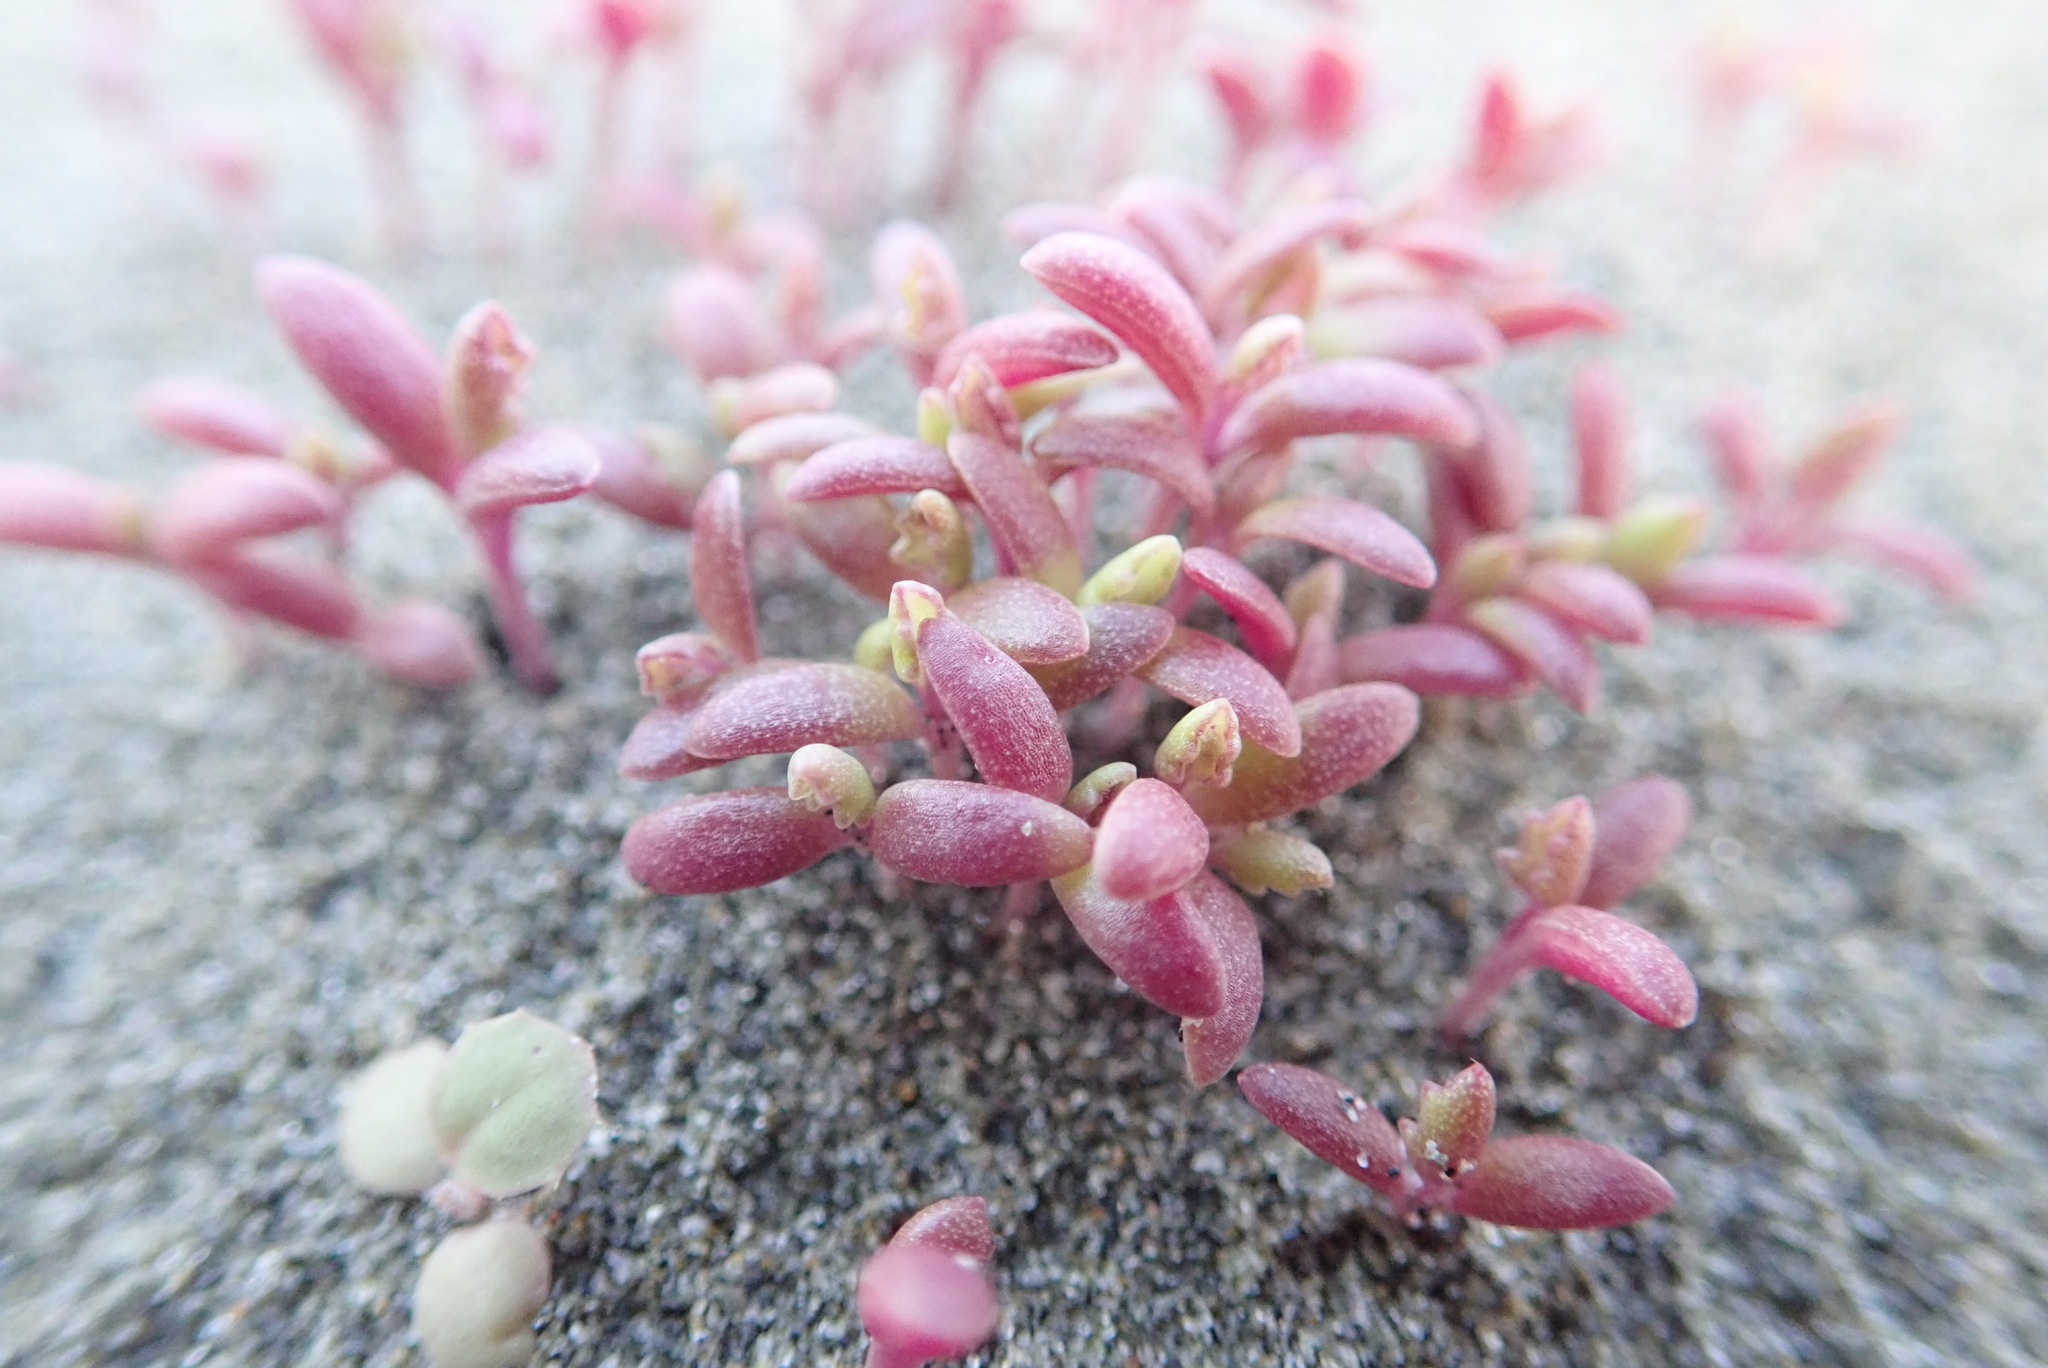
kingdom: Plantae
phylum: Tracheophyta
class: Magnoliopsida
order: Asterales
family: Asteraceae
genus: Senecio
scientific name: Senecio elegans
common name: Purple groundsel
